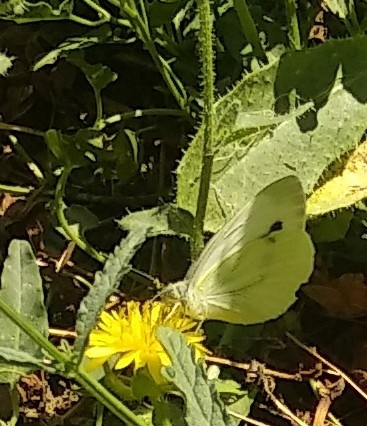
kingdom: Animalia
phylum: Arthropoda
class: Insecta
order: Lepidoptera
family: Pieridae
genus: Pieris
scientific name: Pieris napi
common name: Green-veined white
